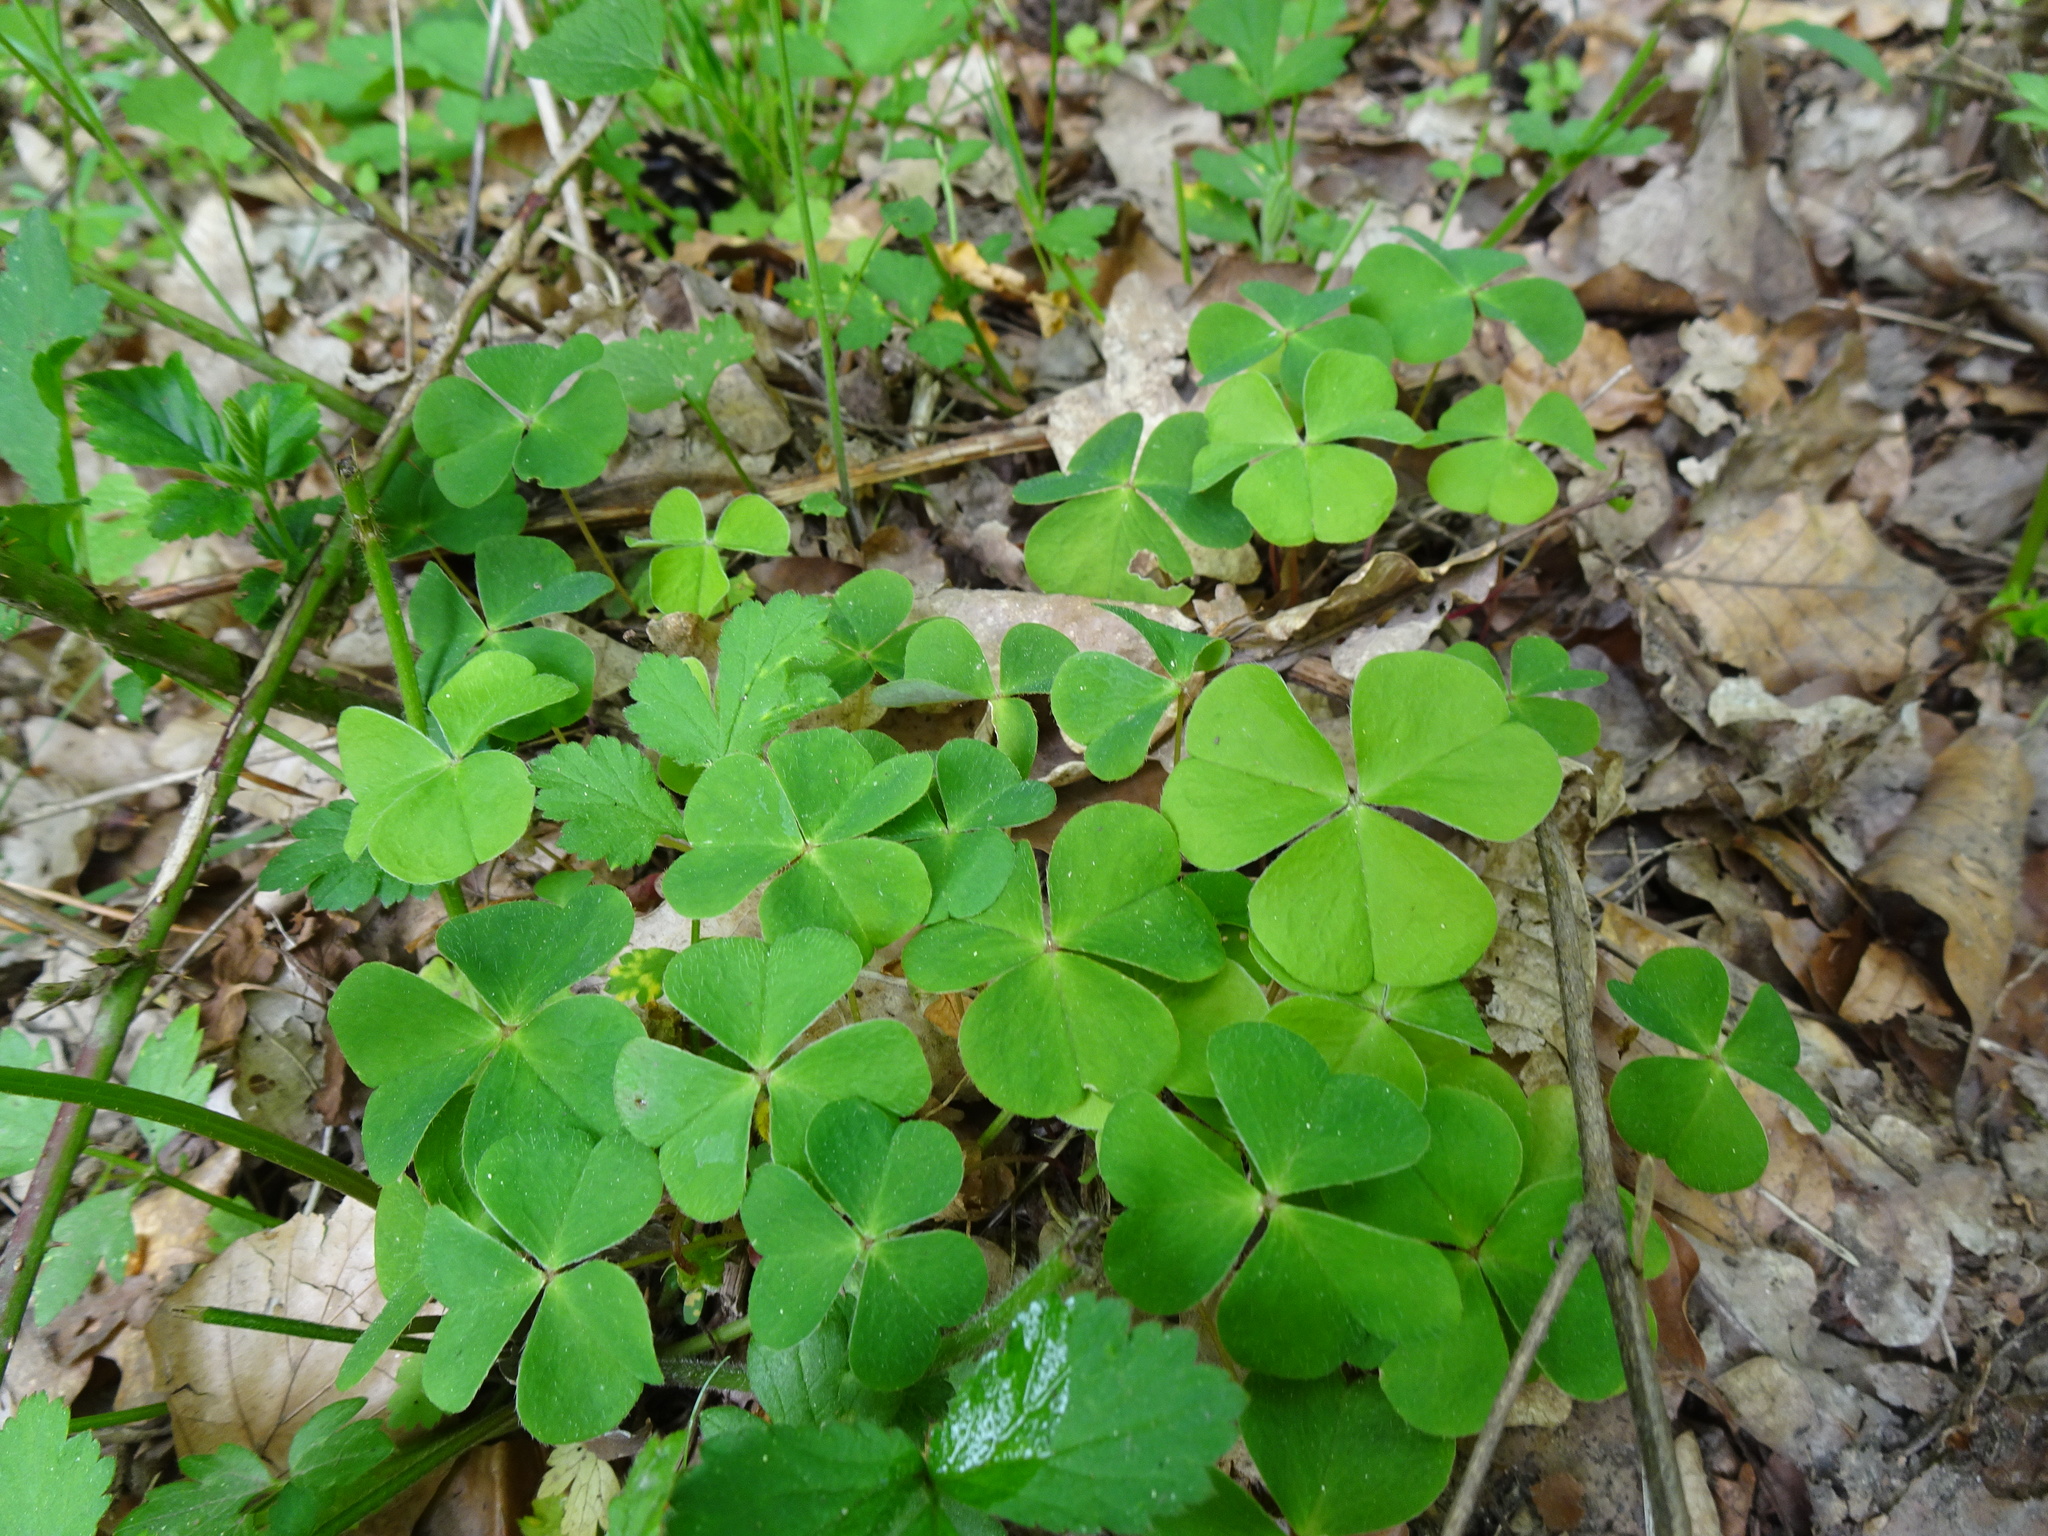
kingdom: Plantae
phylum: Tracheophyta
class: Magnoliopsida
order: Oxalidales
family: Oxalidaceae
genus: Oxalis
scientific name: Oxalis acetosella
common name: Wood-sorrel
